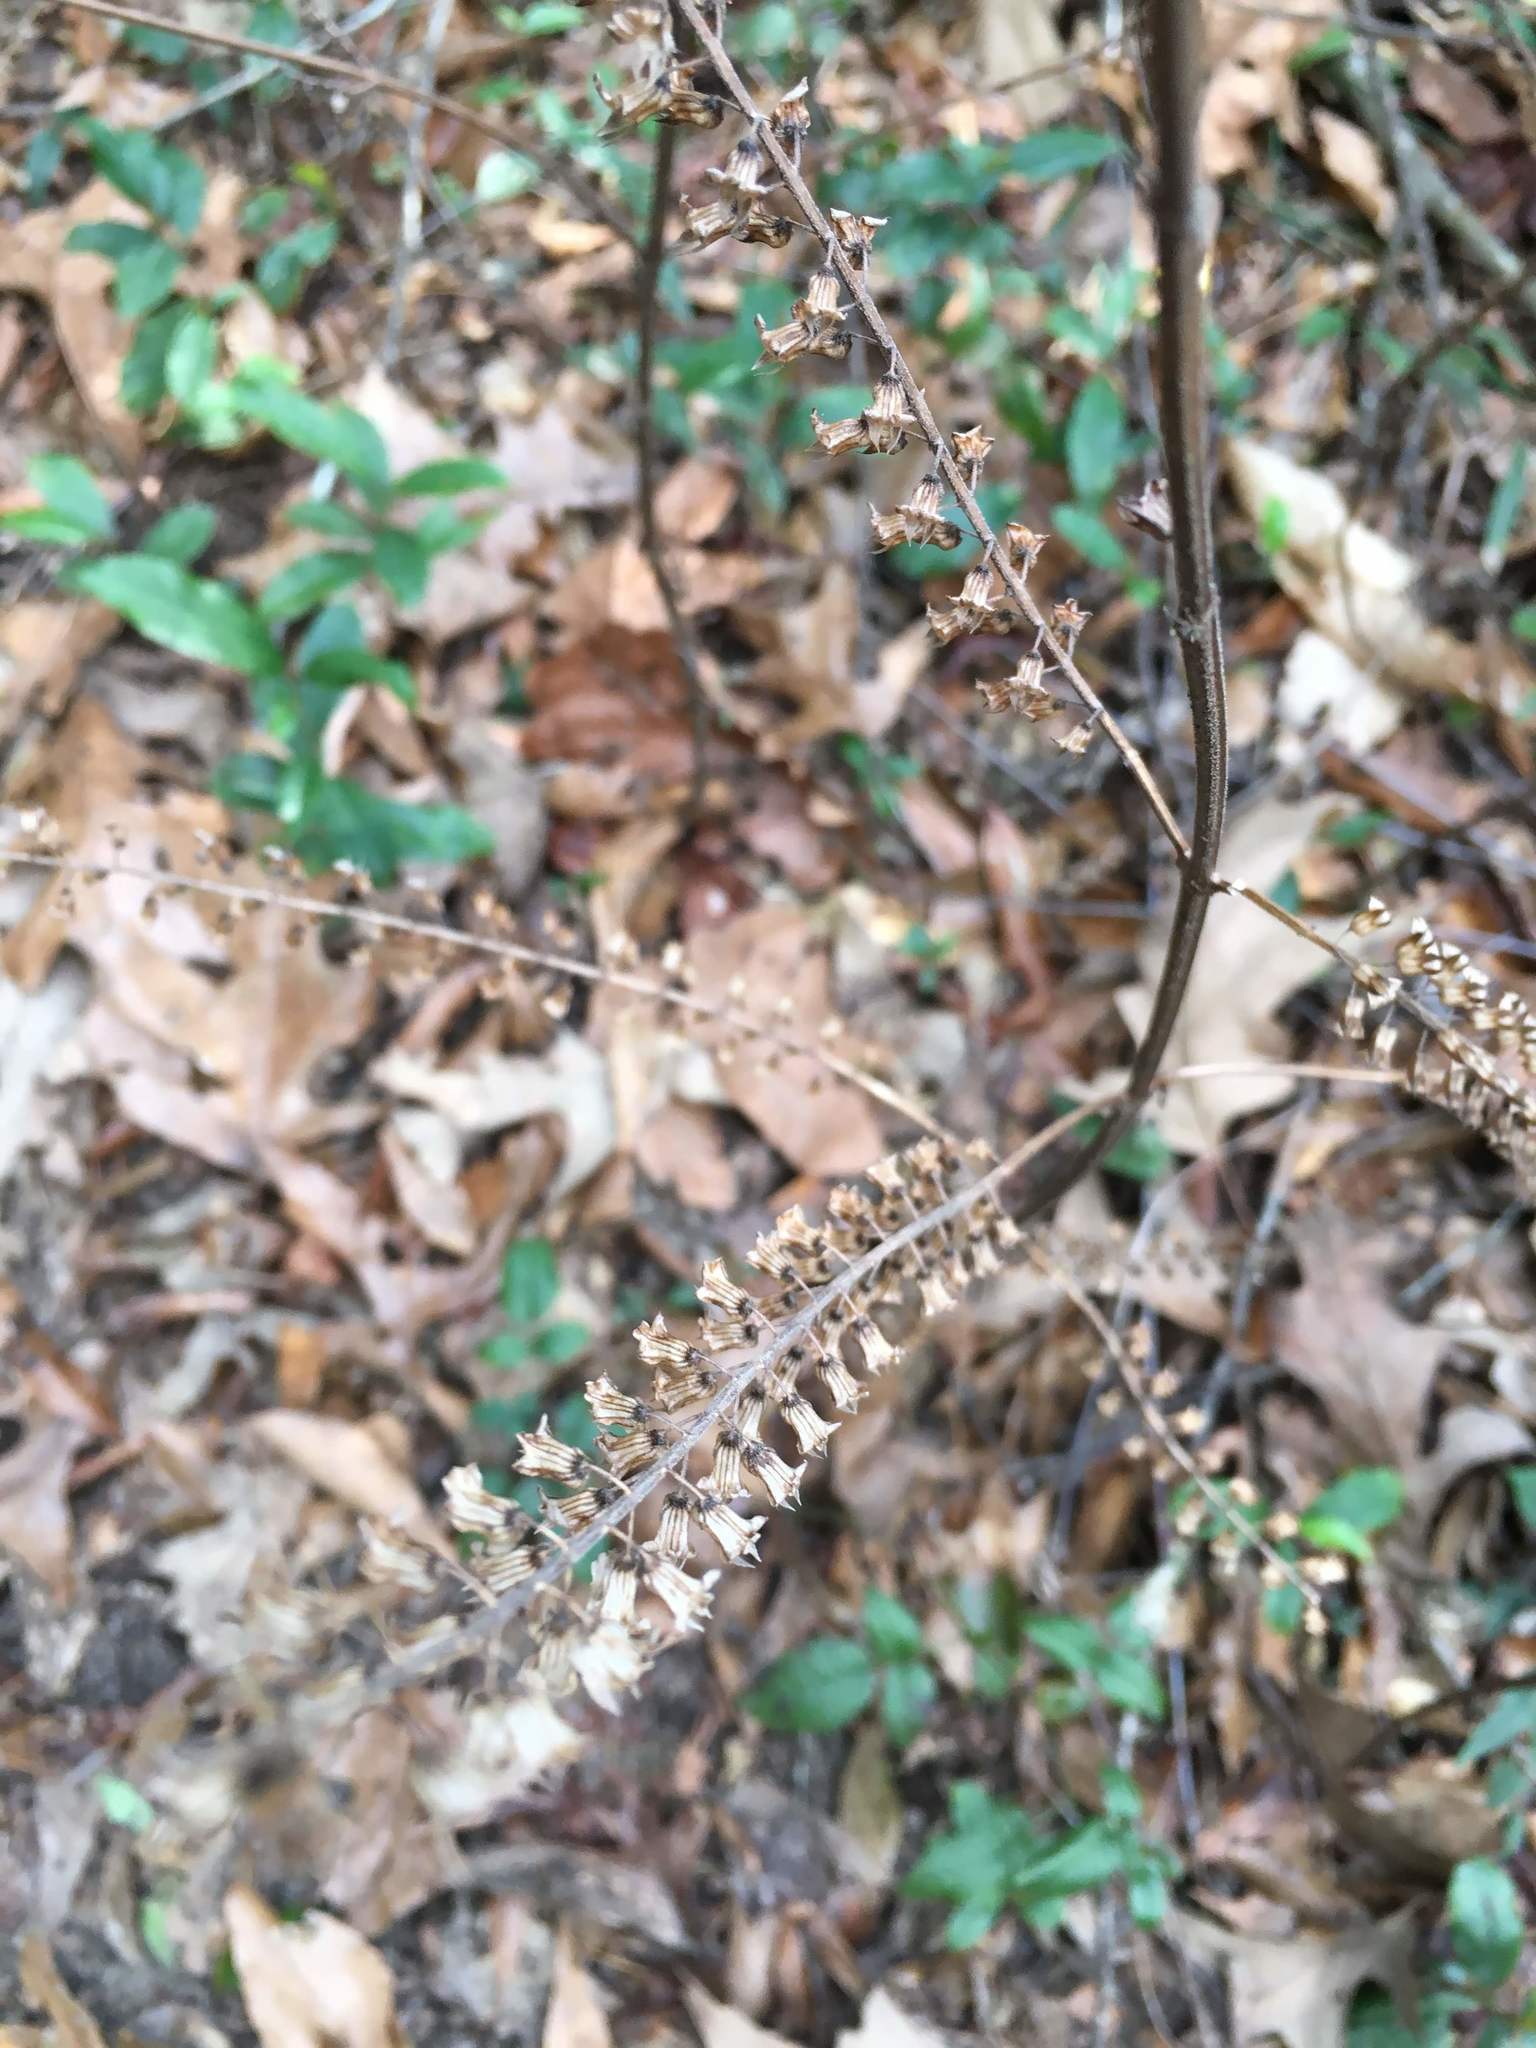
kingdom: Plantae
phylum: Tracheophyta
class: Magnoliopsida
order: Lamiales
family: Lamiaceae
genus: Perilla
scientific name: Perilla frutescens
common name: Perilla
